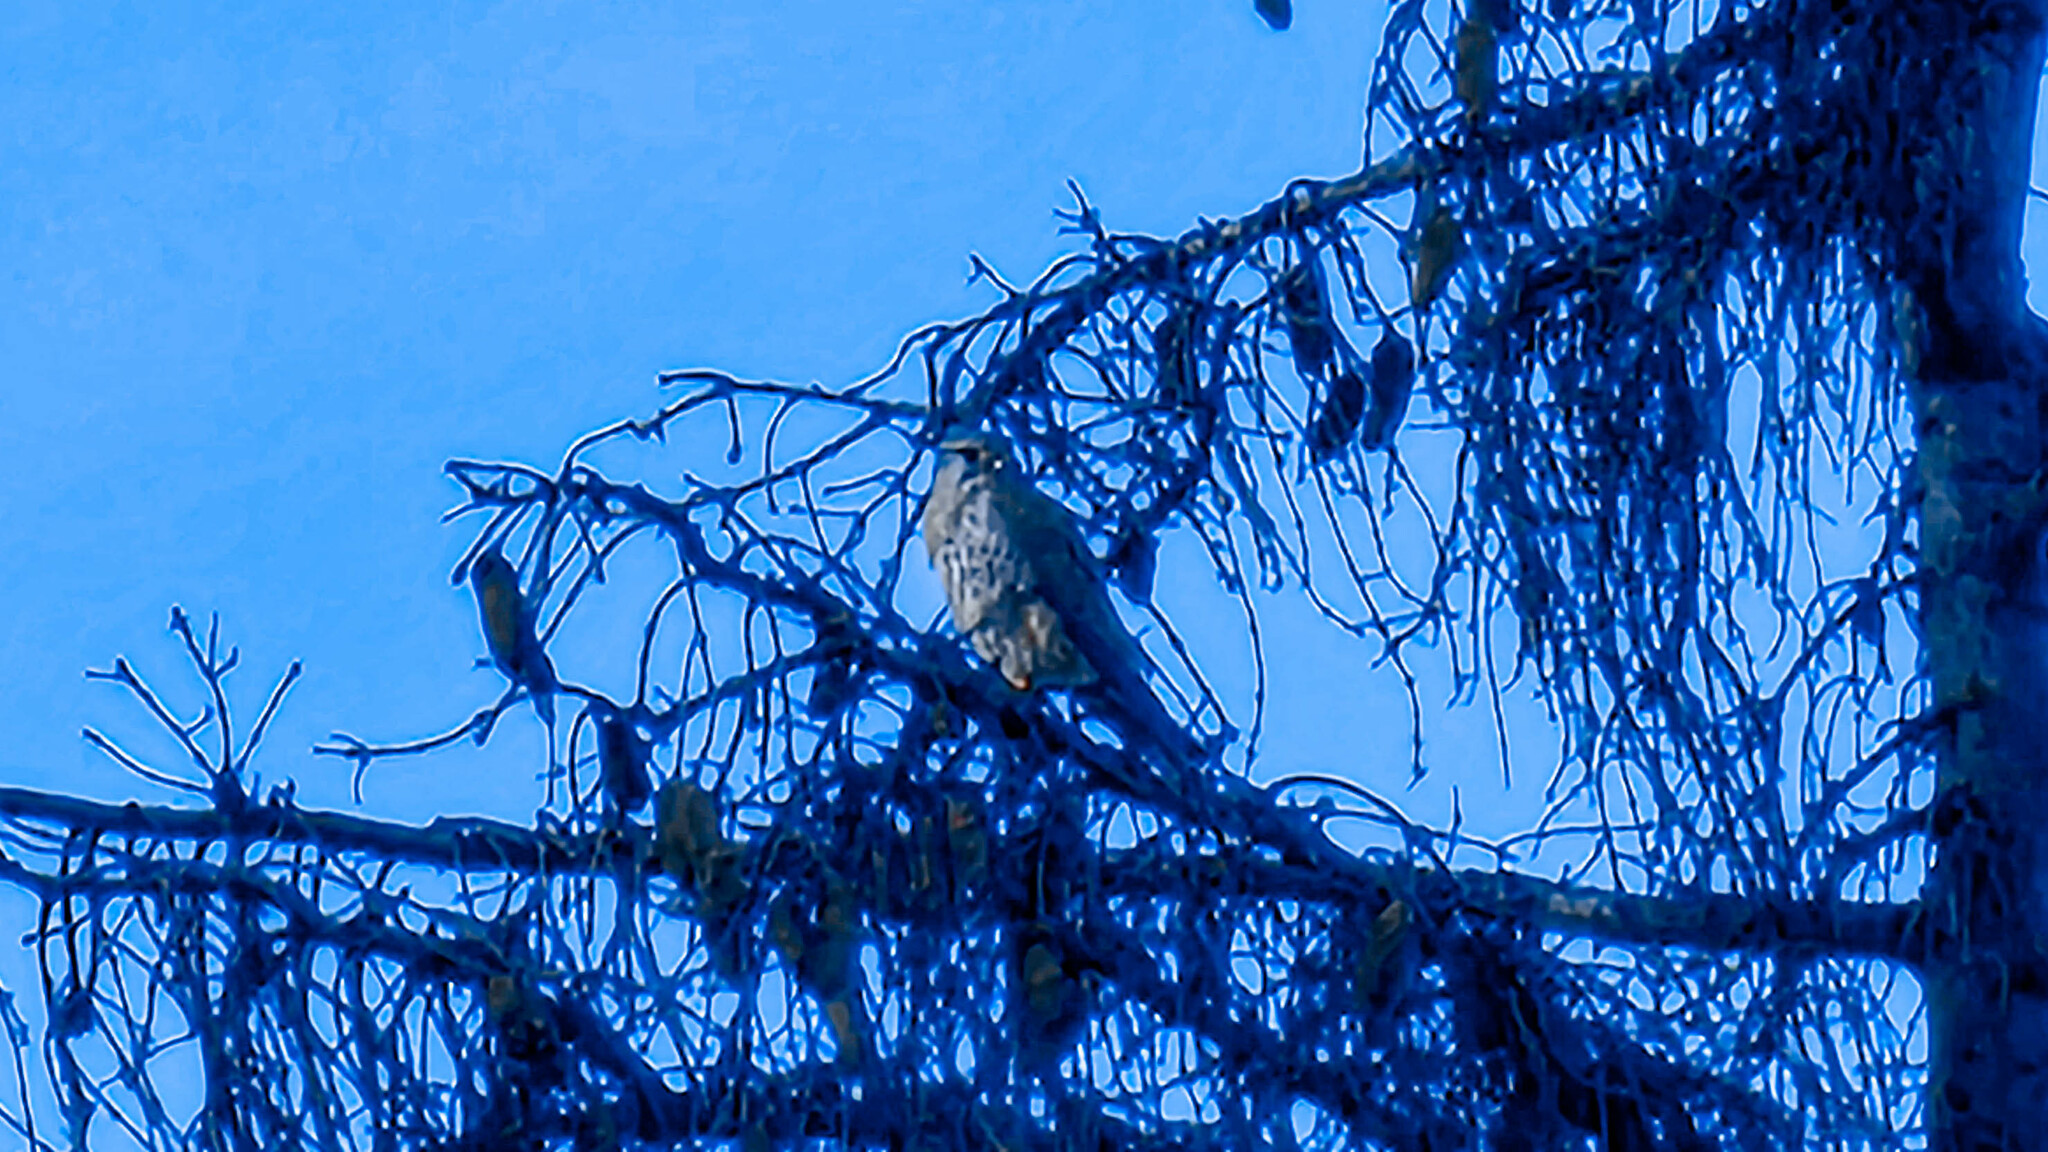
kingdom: Animalia
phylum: Chordata
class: Aves
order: Falconiformes
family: Falconidae
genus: Falco
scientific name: Falco tinnunculus
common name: Common kestrel
